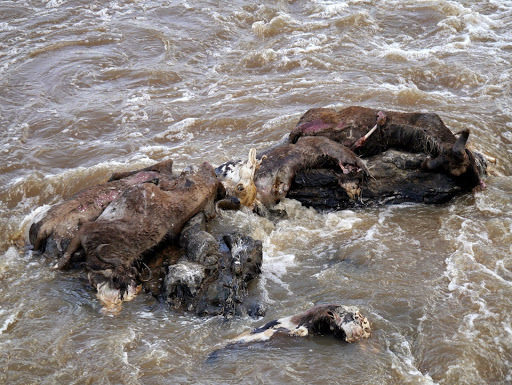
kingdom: Animalia
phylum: Chordata
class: Mammalia
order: Artiodactyla
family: Bovidae
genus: Connochaetes
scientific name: Connochaetes taurinus
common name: Blue wildebeest
